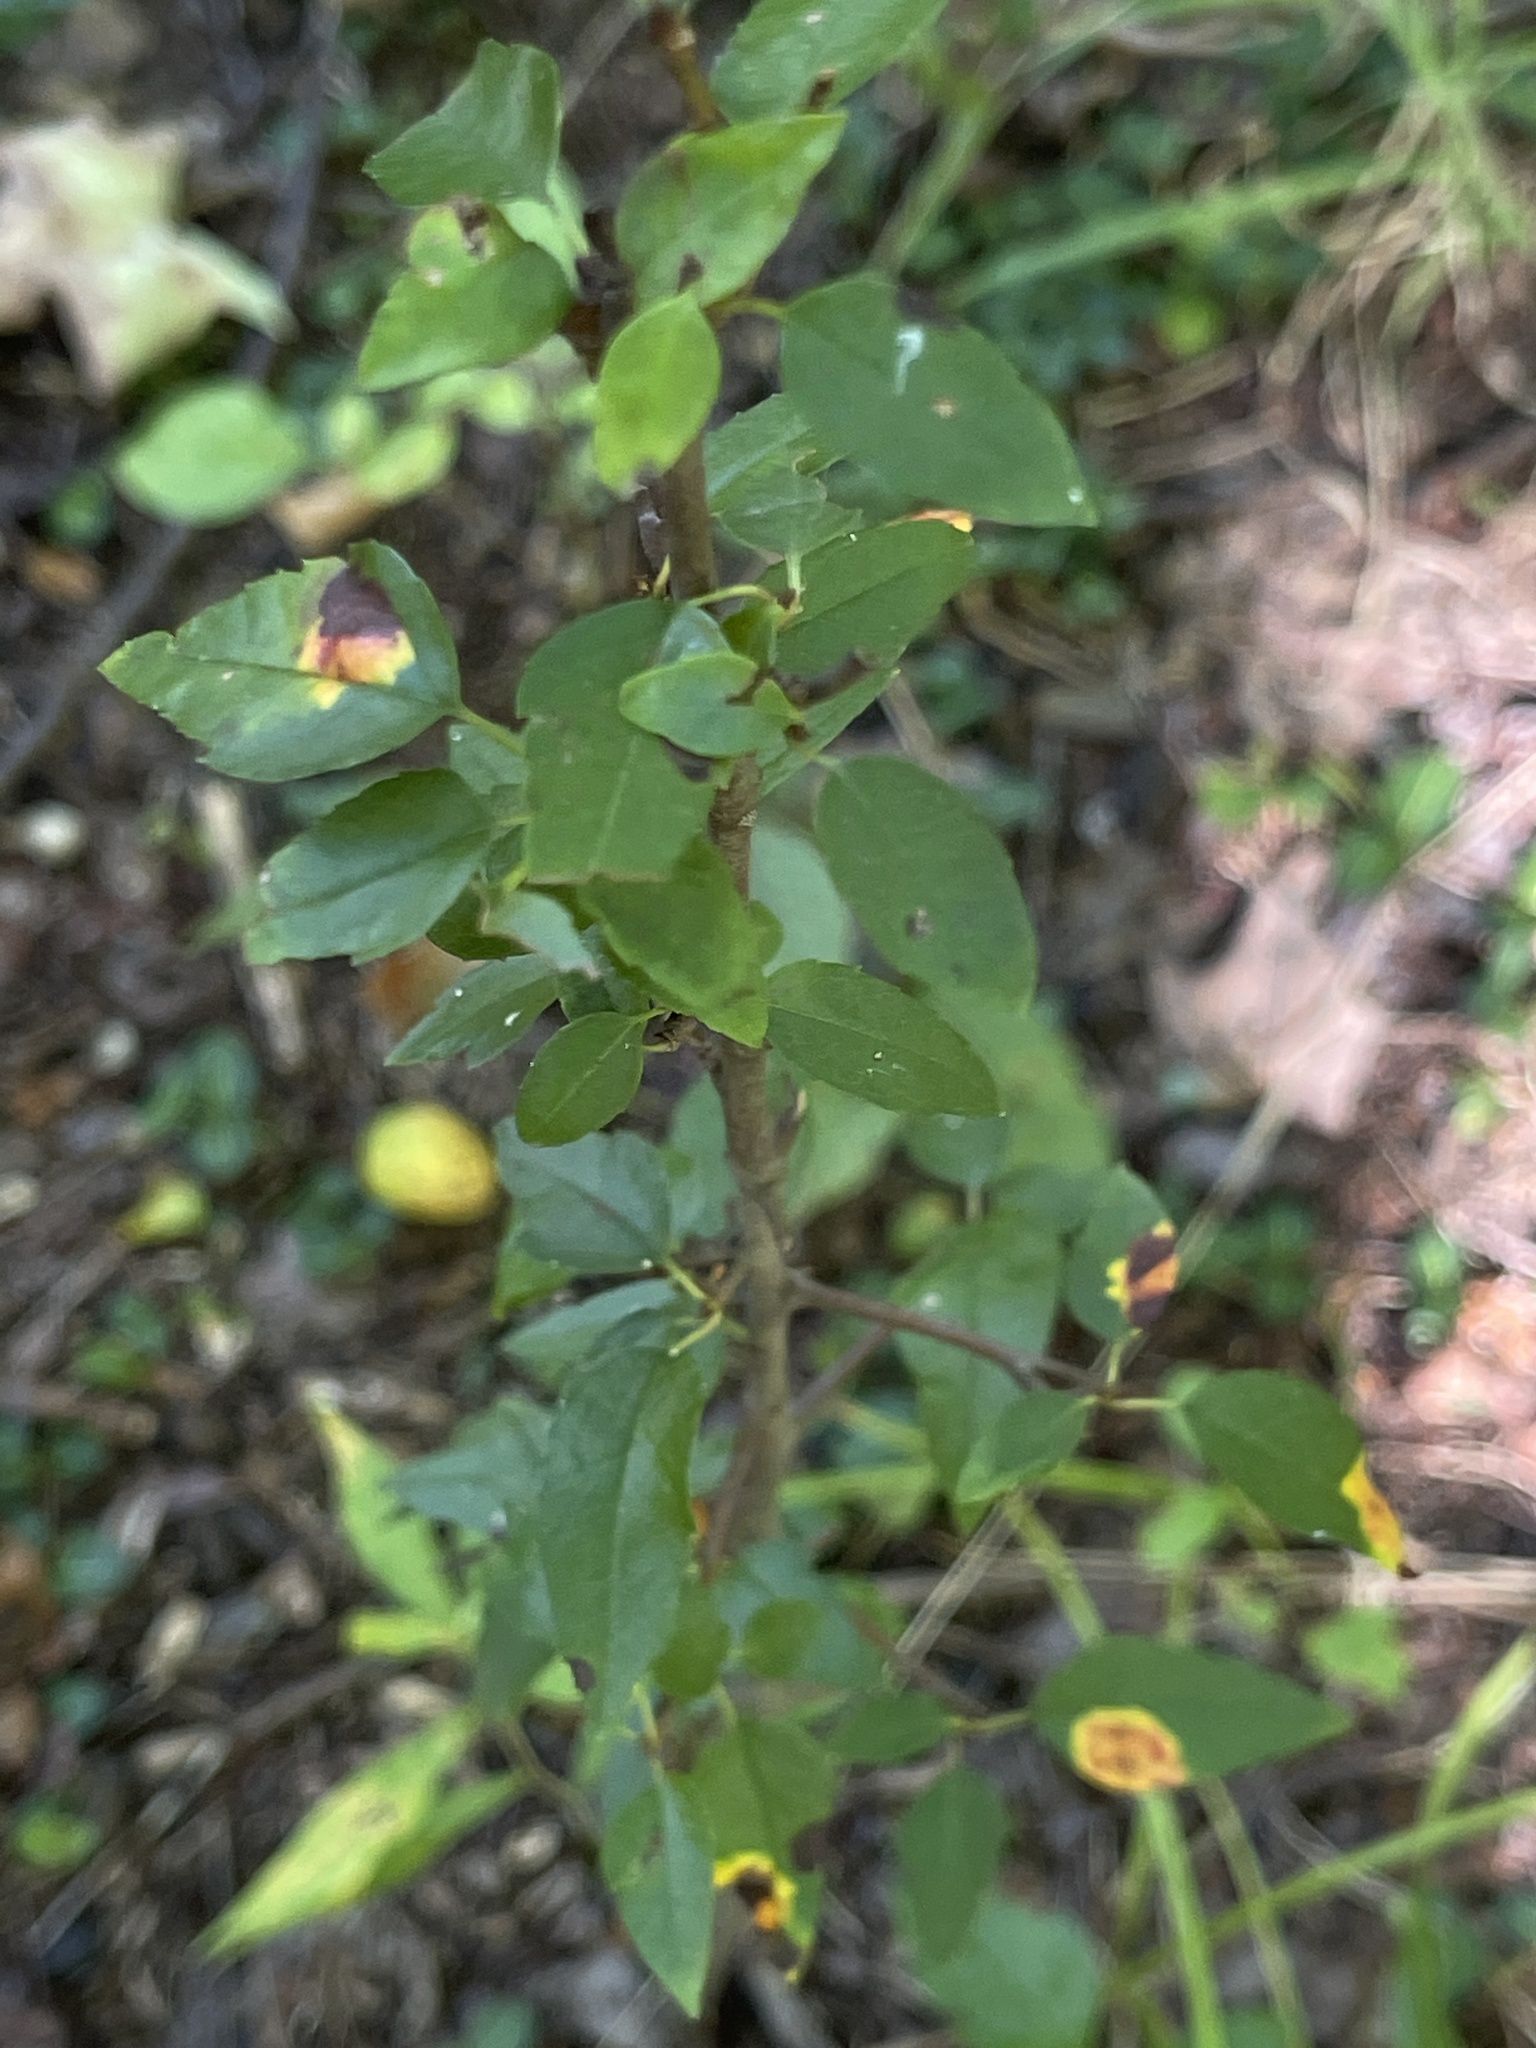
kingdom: Plantae
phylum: Tracheophyta
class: Magnoliopsida
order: Rosales
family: Rosaceae
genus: Malus
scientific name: Malus coronaria
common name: Sweet crab apple
